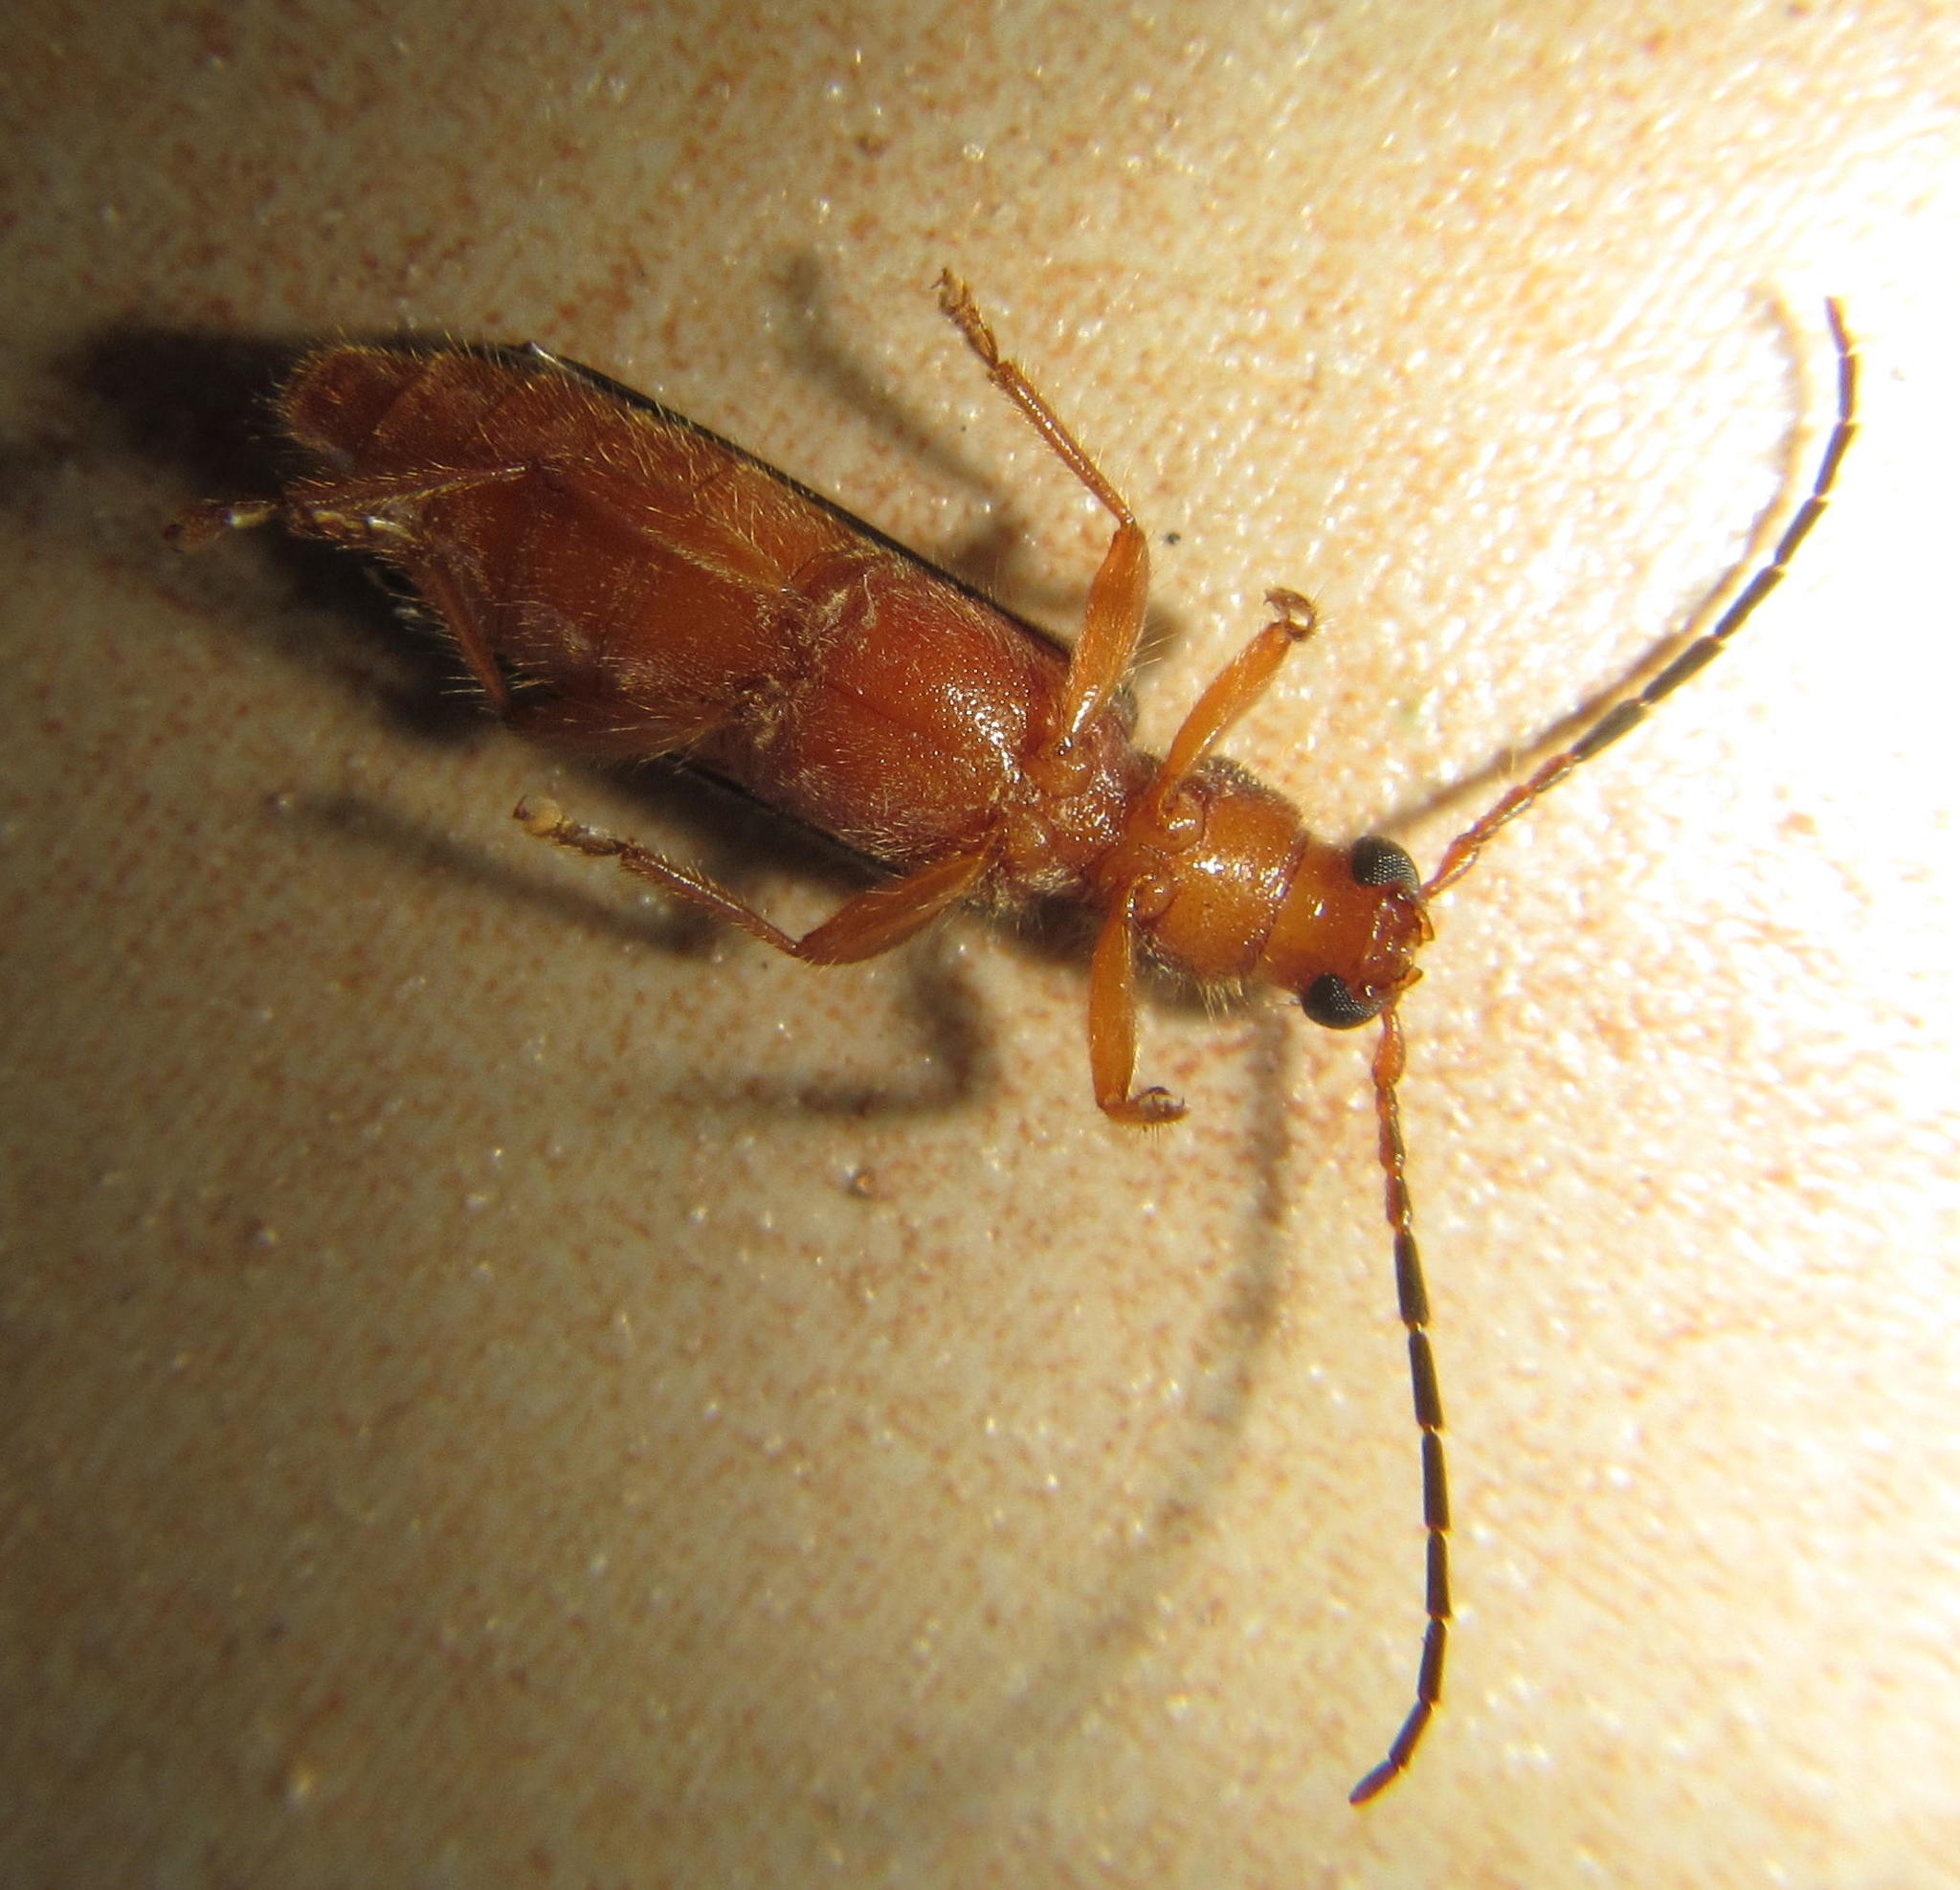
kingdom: Animalia
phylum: Arthropoda
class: Insecta
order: Coleoptera
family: Cerambycidae
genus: Mythozoum
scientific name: Mythozoum orientalis
